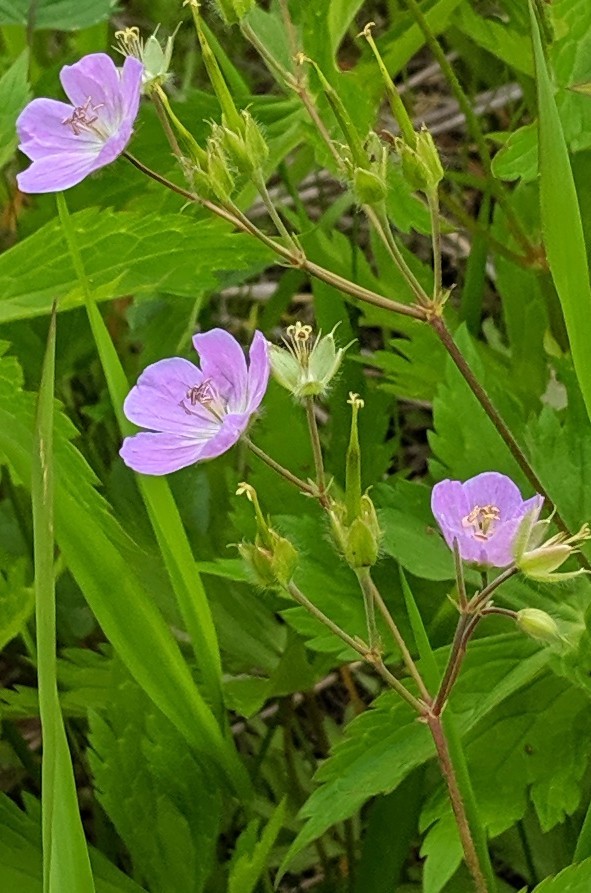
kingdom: Plantae
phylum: Tracheophyta
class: Magnoliopsida
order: Geraniales
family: Geraniaceae
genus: Geranium
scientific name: Geranium maculatum
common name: Spotted geranium
